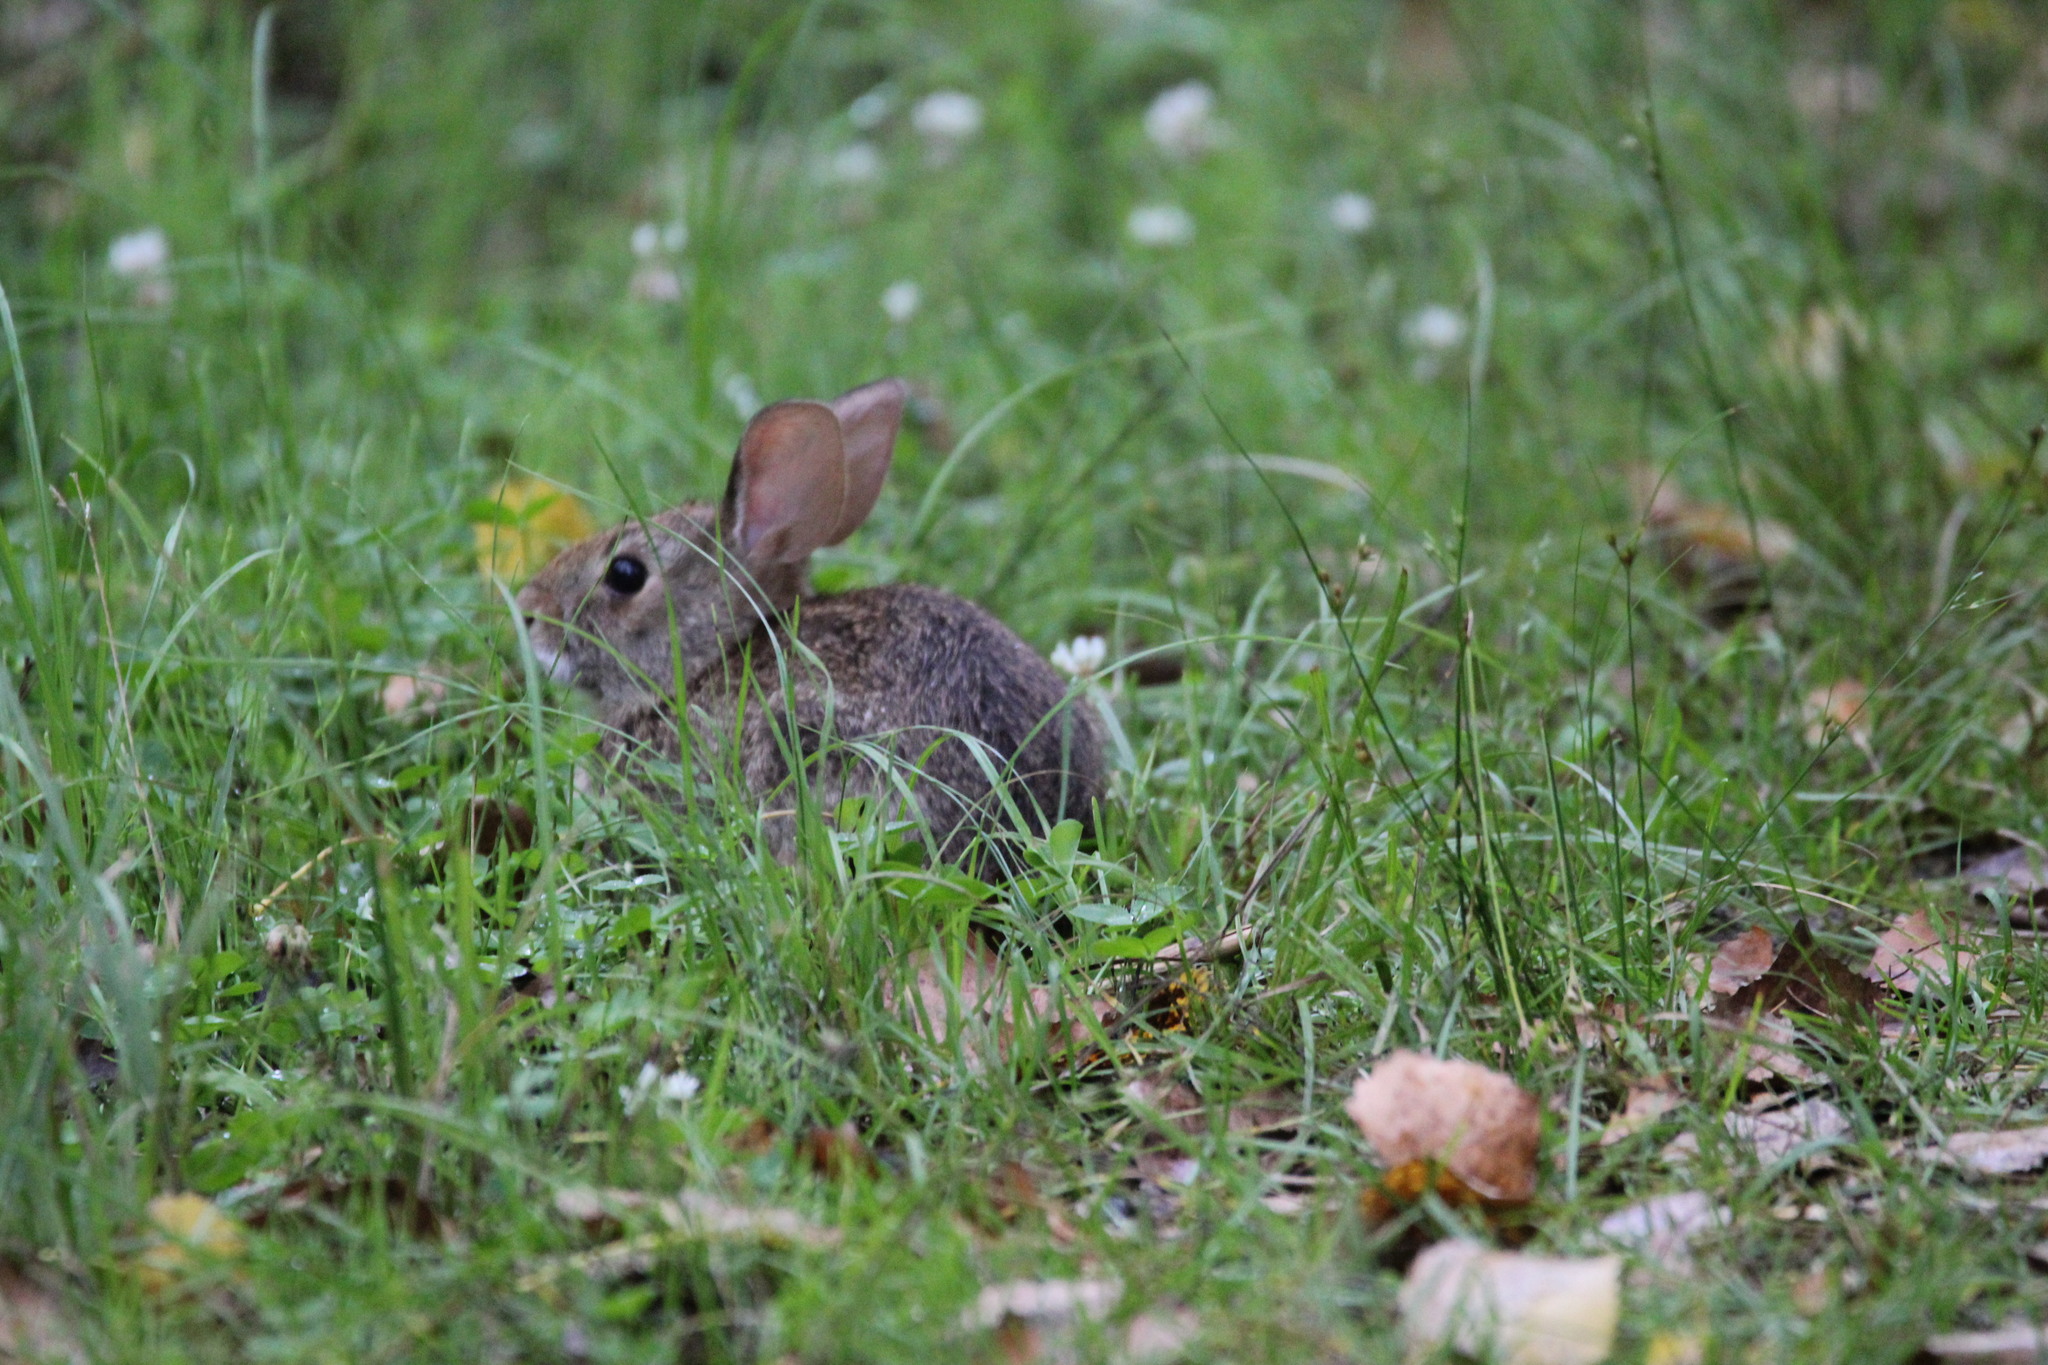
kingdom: Animalia
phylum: Chordata
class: Mammalia
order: Lagomorpha
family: Leporidae
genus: Sylvilagus
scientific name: Sylvilagus floridanus
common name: Eastern cottontail
